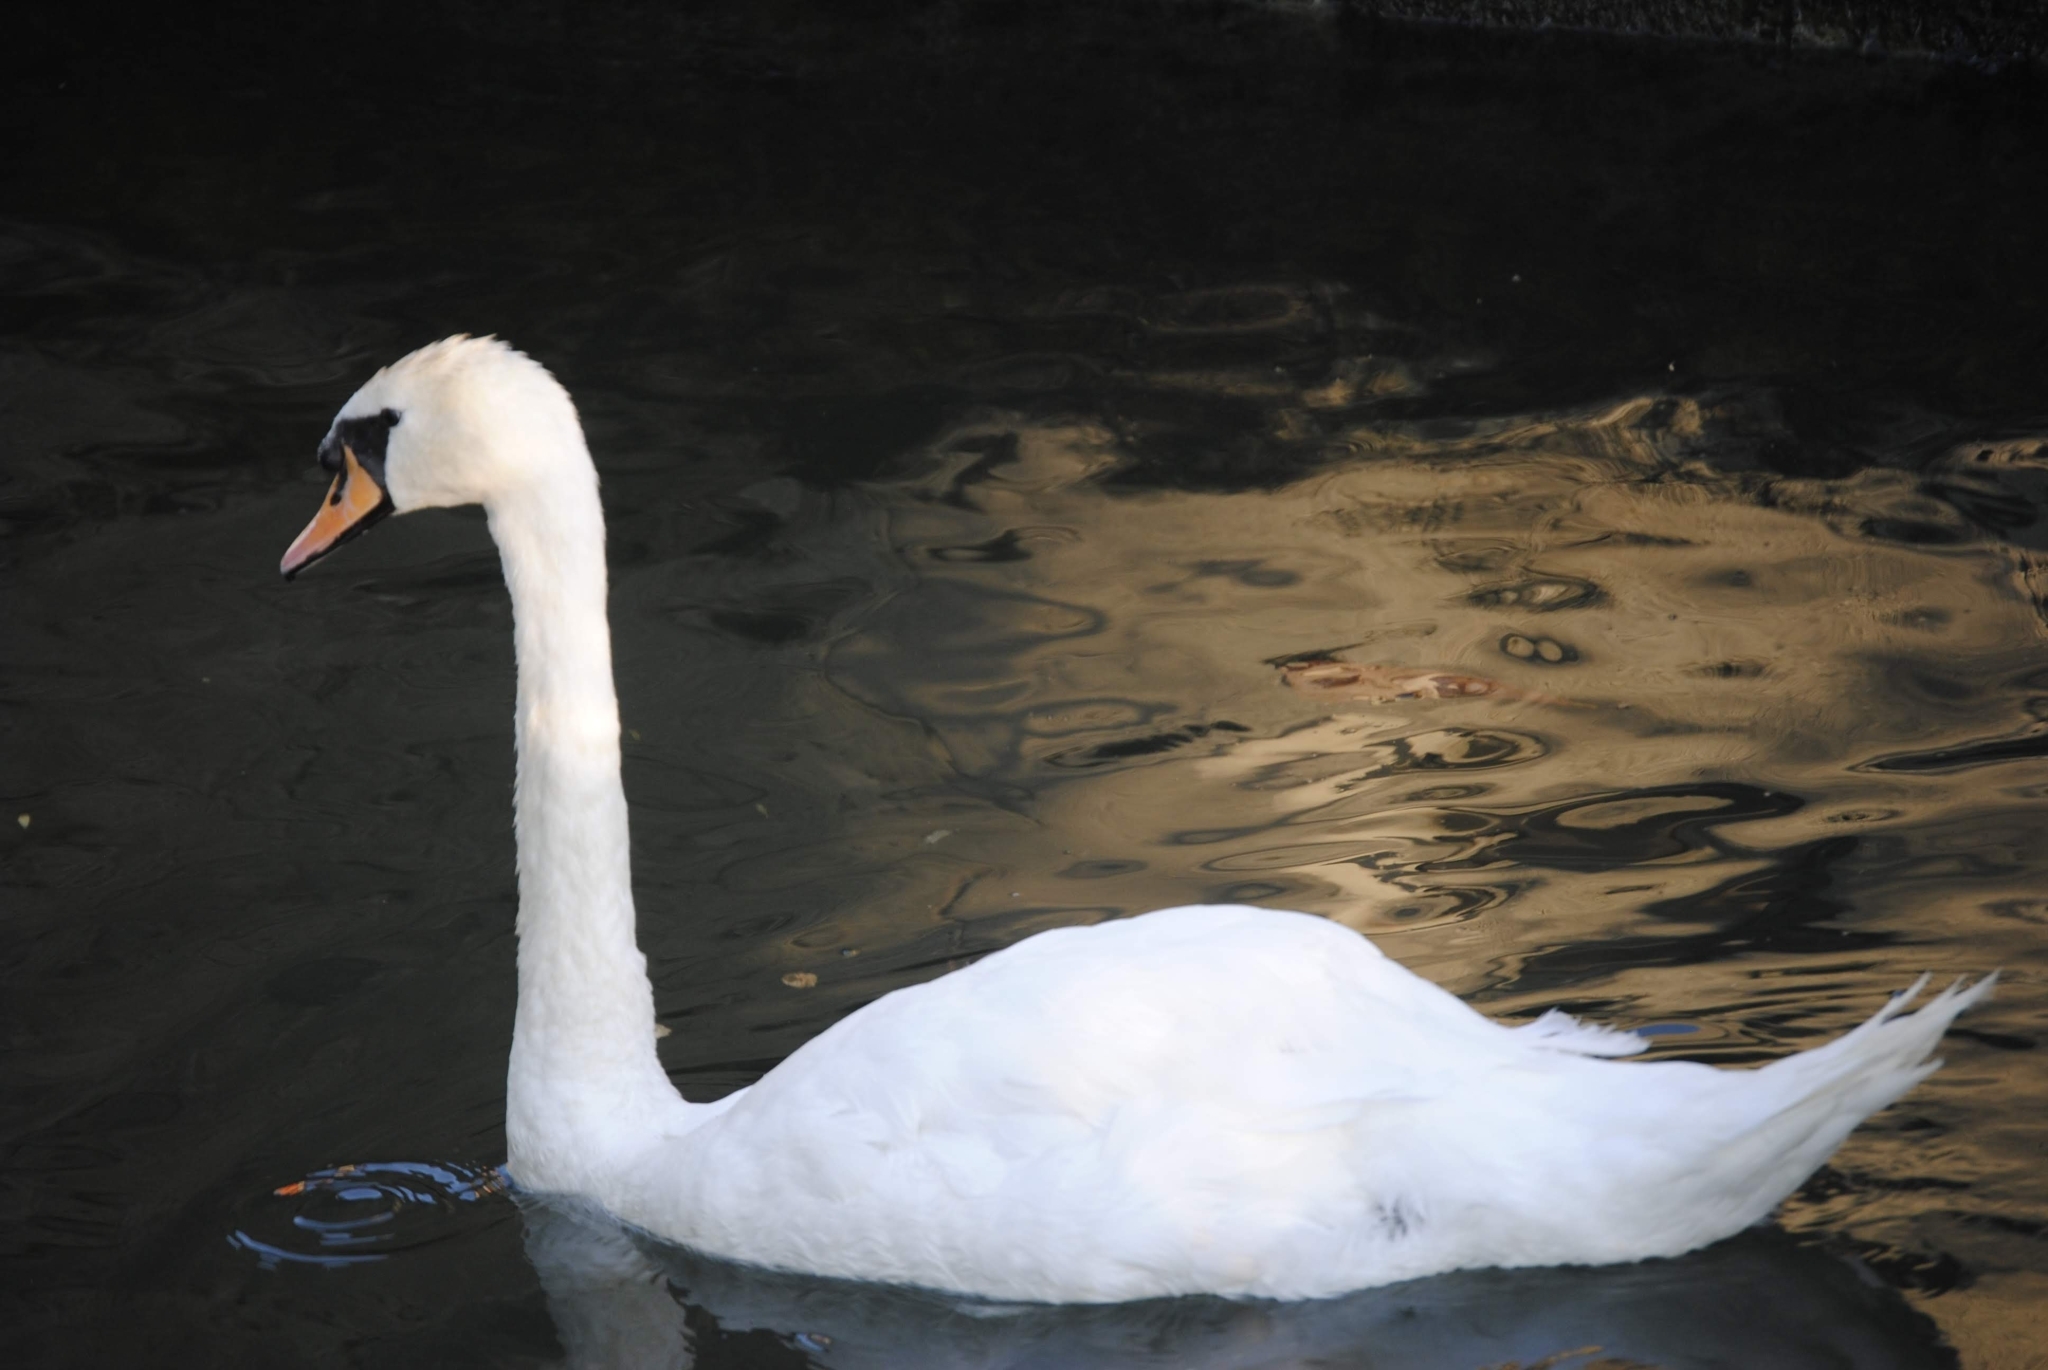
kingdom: Animalia
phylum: Chordata
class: Aves
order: Anseriformes
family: Anatidae
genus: Cygnus
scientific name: Cygnus olor
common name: Mute swan
